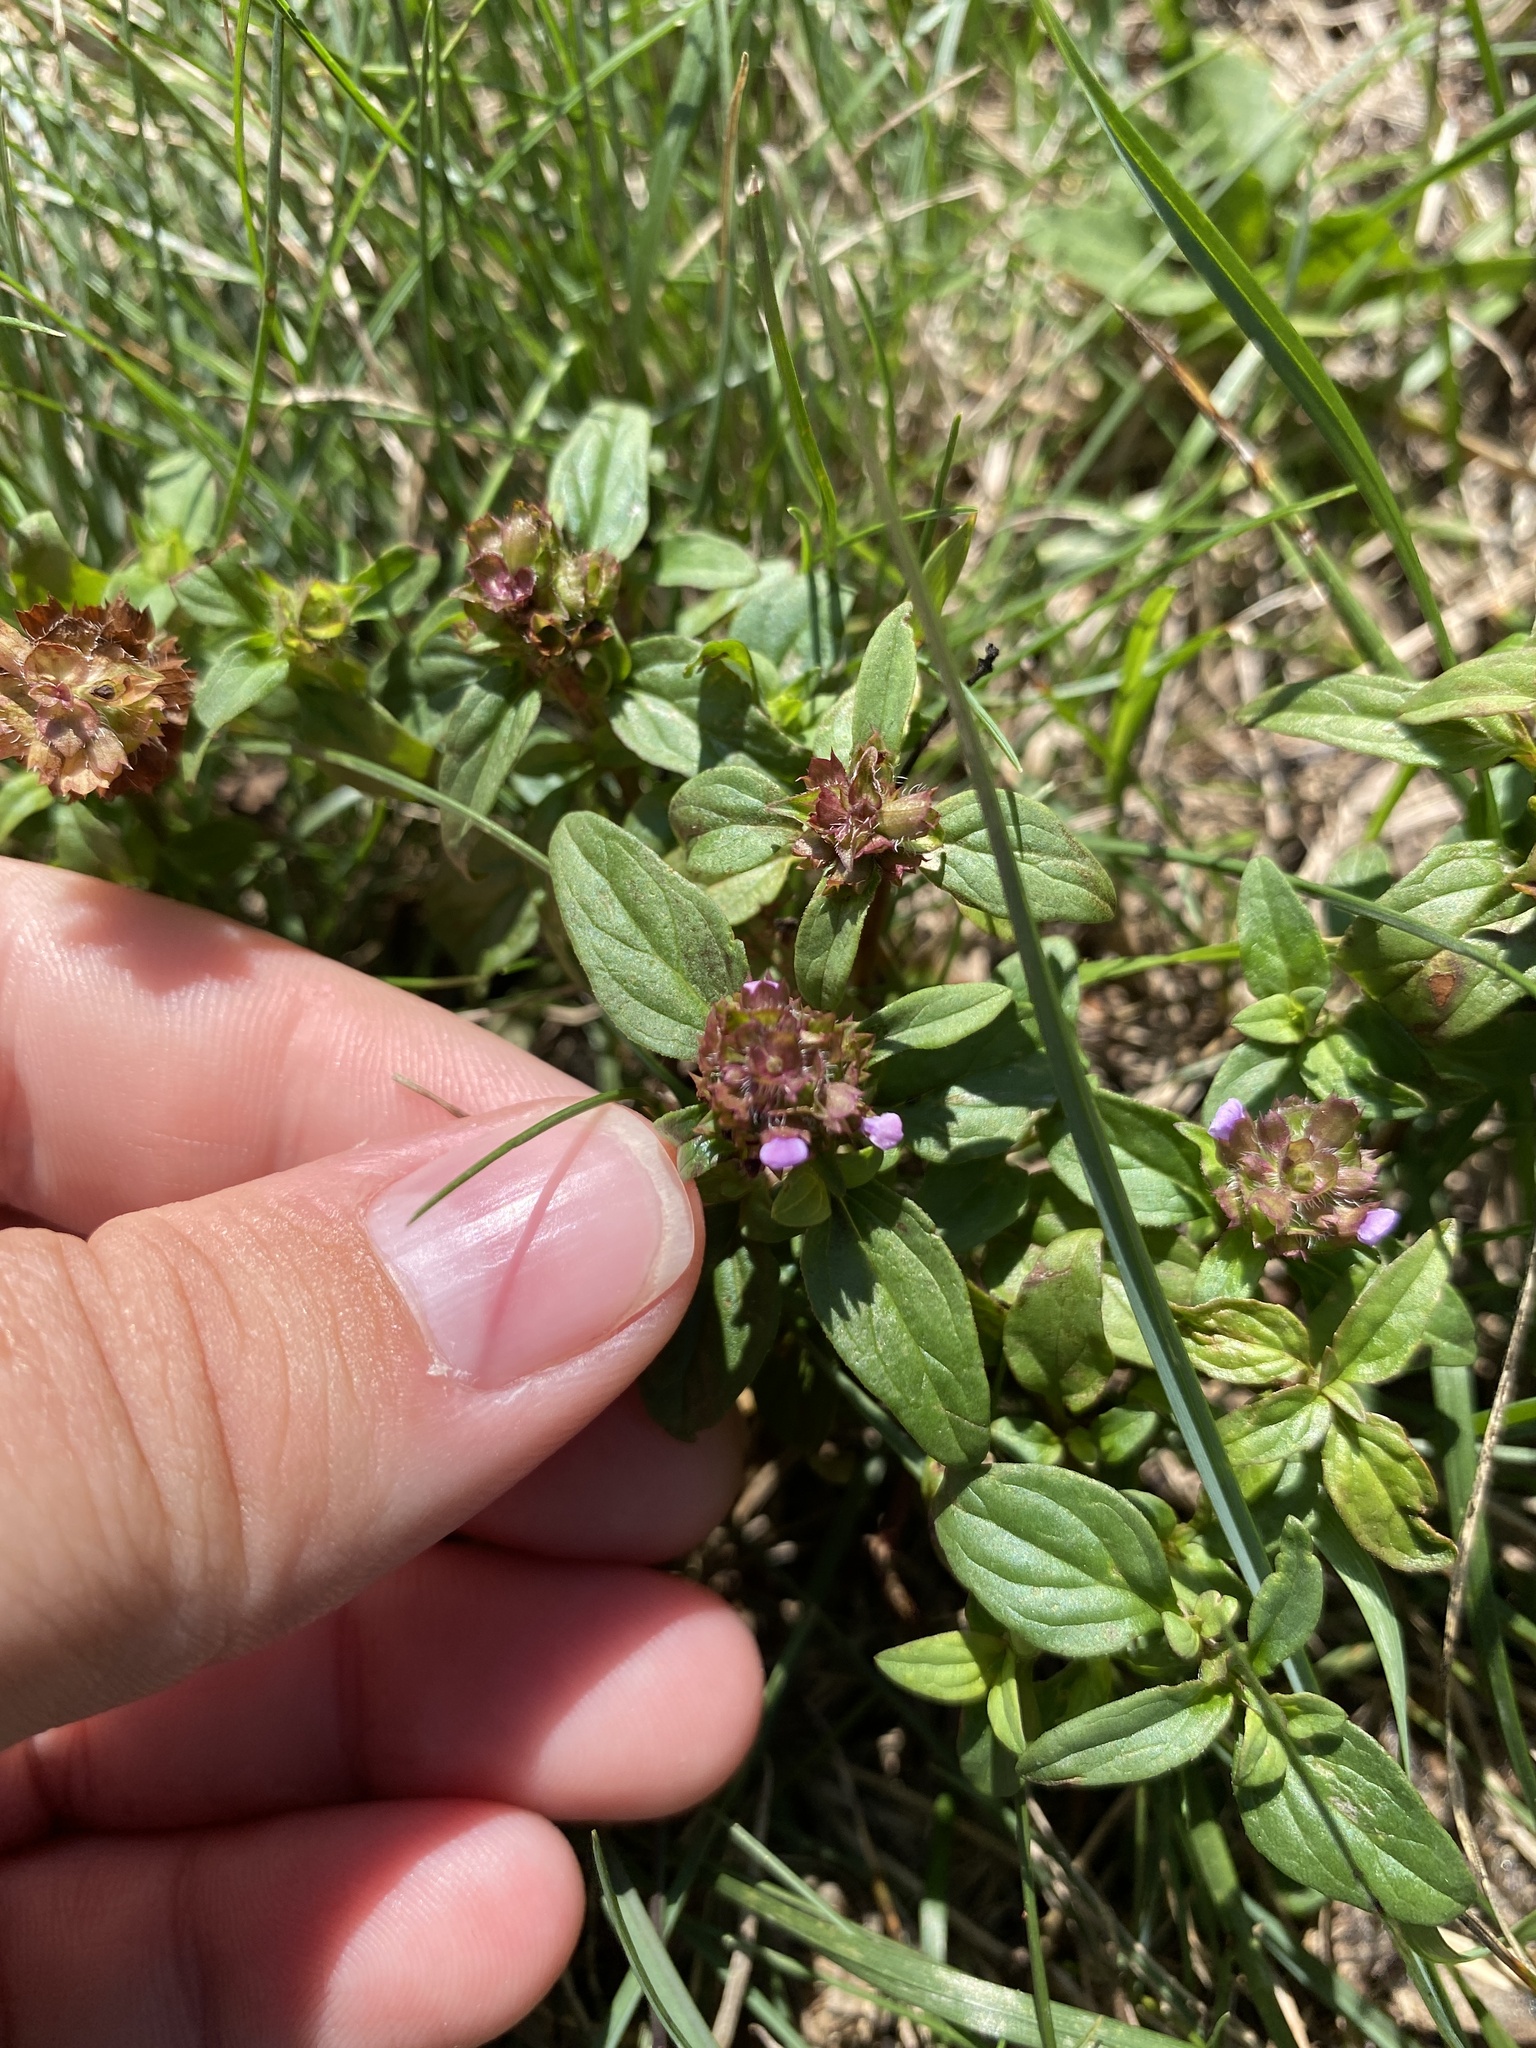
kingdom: Plantae
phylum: Tracheophyta
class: Magnoliopsida
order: Lamiales
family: Lamiaceae
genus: Prunella
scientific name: Prunella vulgaris
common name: Heal-all
